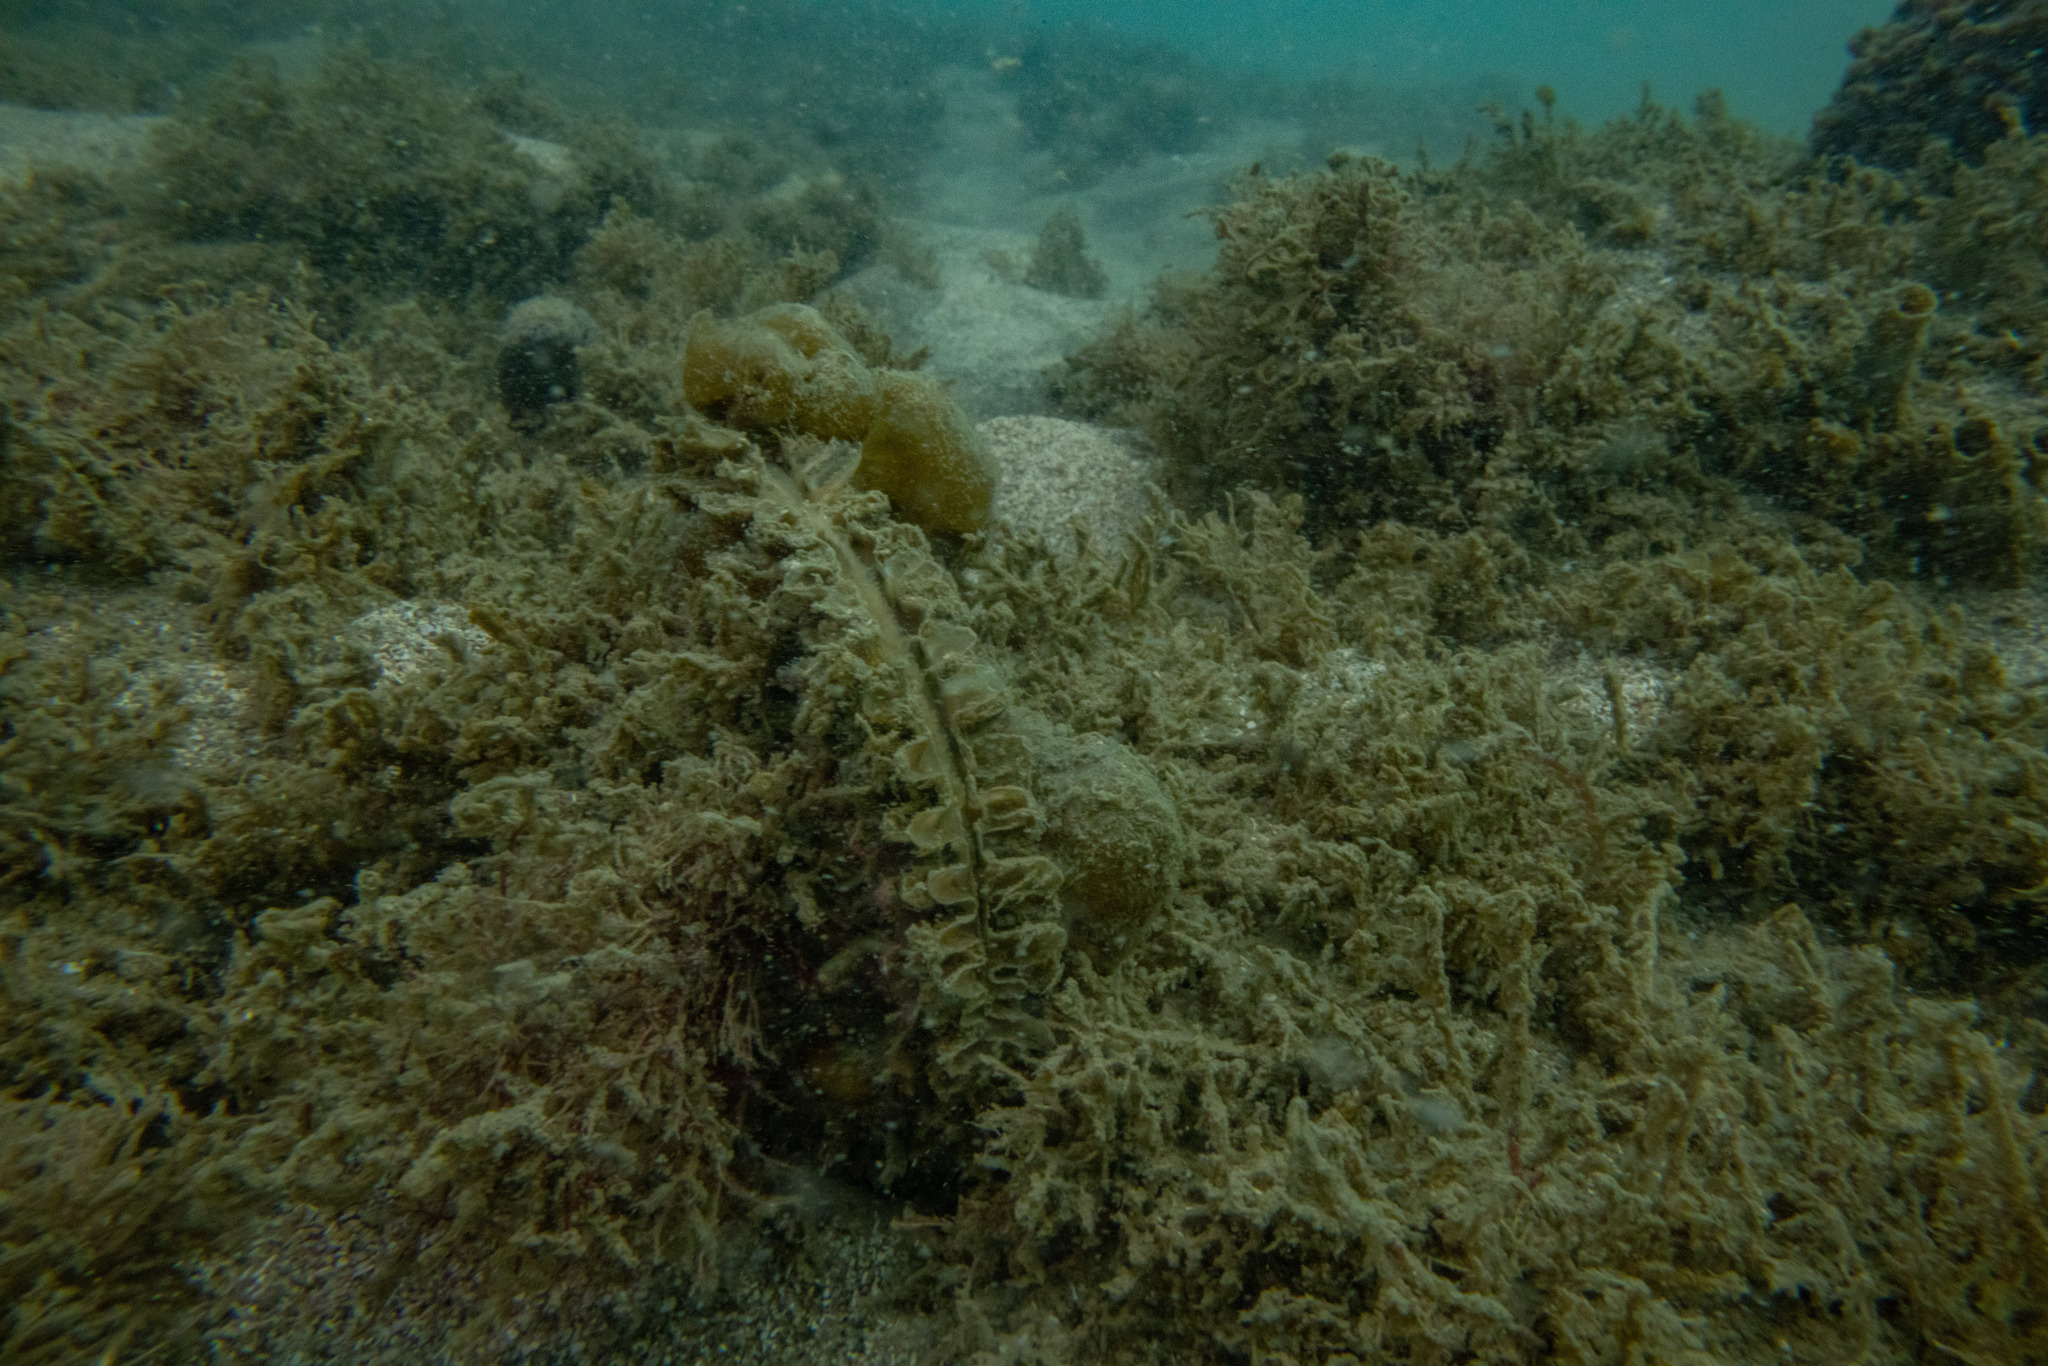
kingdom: Animalia
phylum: Mollusca
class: Bivalvia
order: Ostreida
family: Pinnidae
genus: Atrina
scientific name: Atrina zelandica
